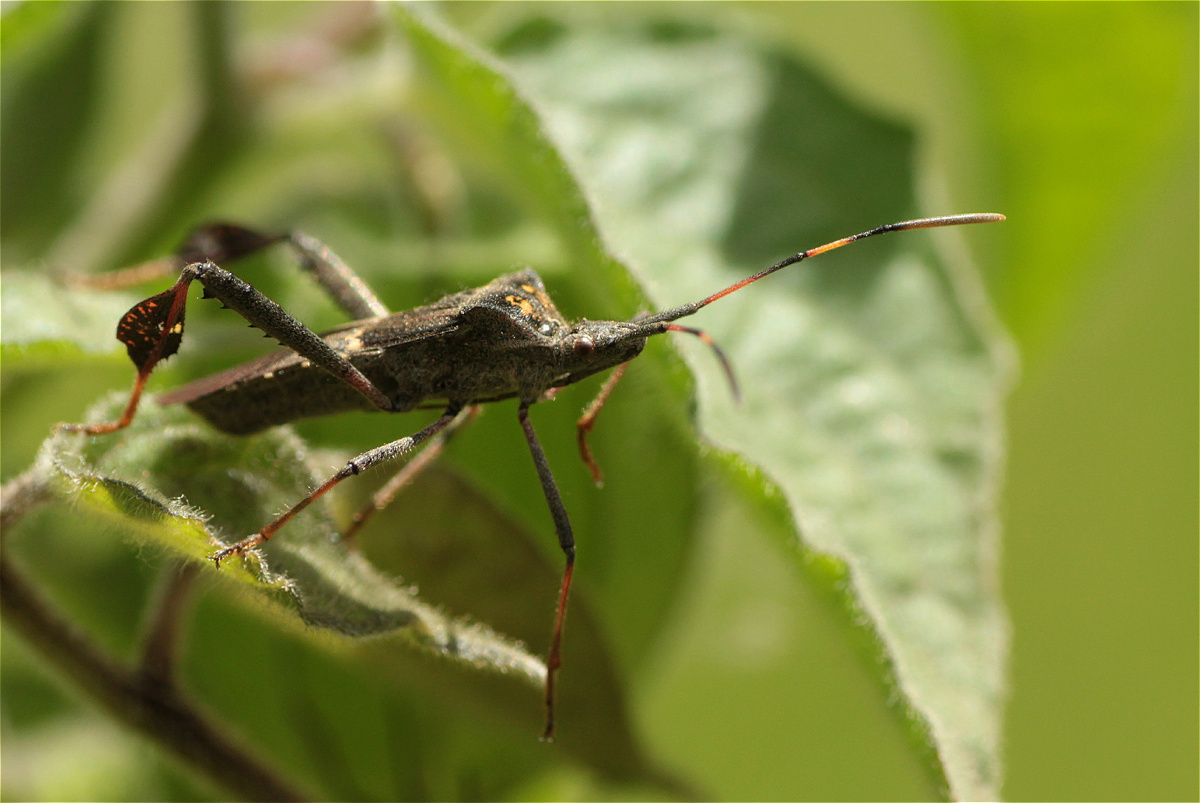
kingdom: Animalia
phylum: Arthropoda
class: Insecta
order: Hemiptera
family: Coreidae
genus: Leptoglossus
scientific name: Leptoglossus zonatus
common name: Large-legged bug
